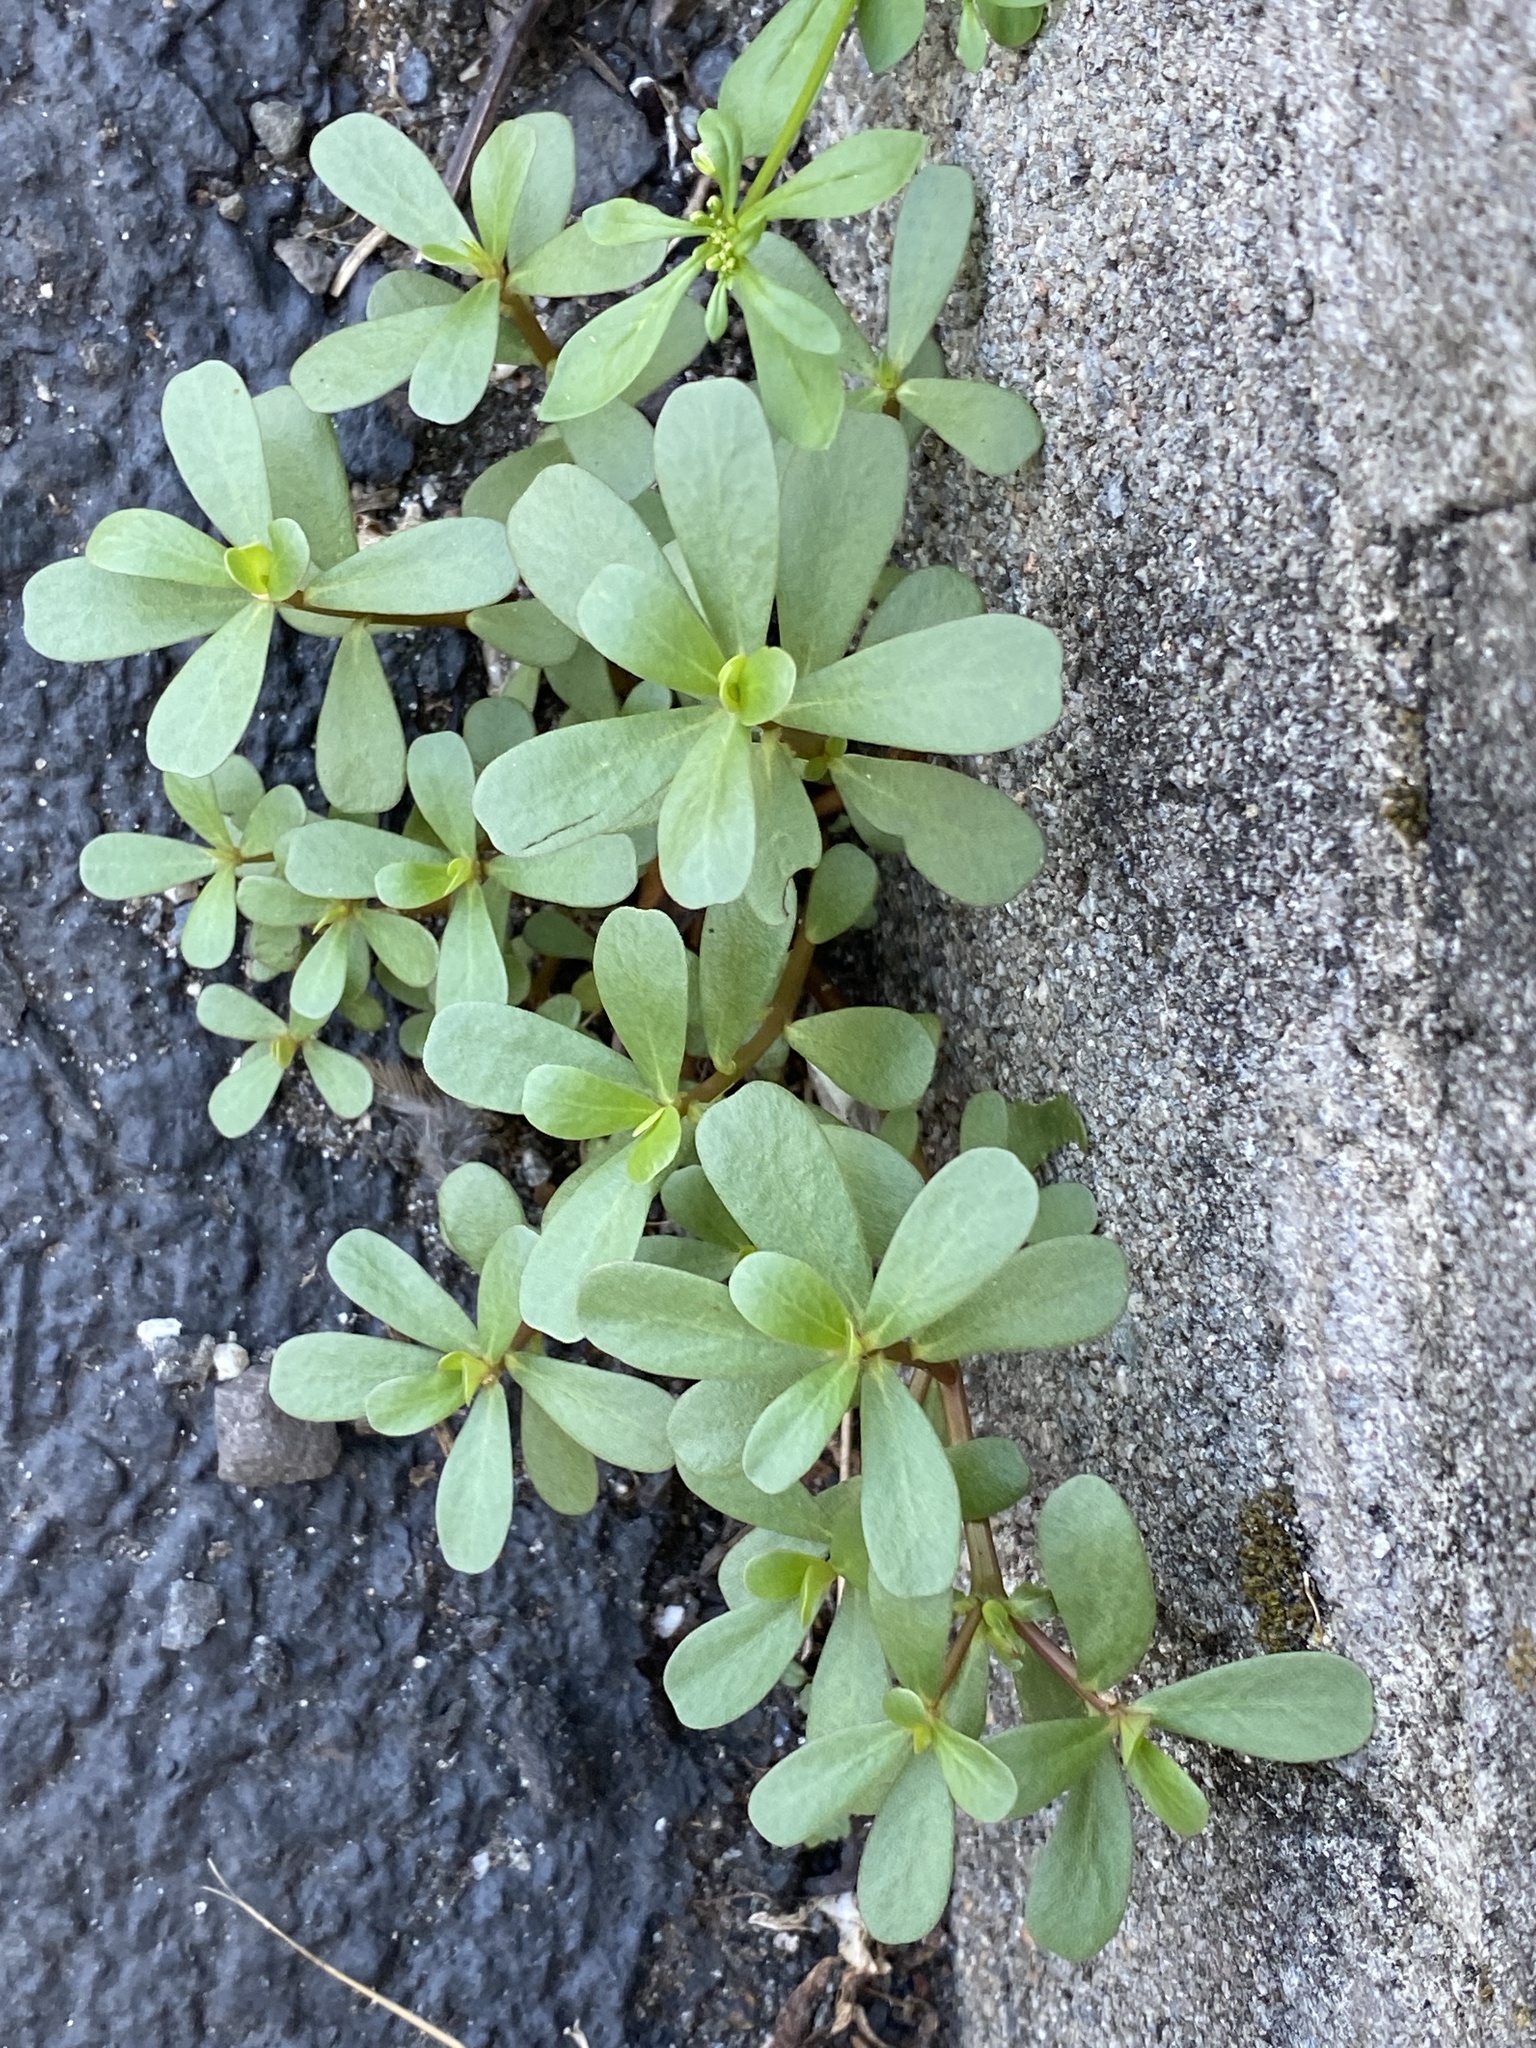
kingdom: Plantae
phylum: Tracheophyta
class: Magnoliopsida
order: Caryophyllales
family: Portulacaceae
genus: Portulaca
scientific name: Portulaca oleracea
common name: Common purslane
